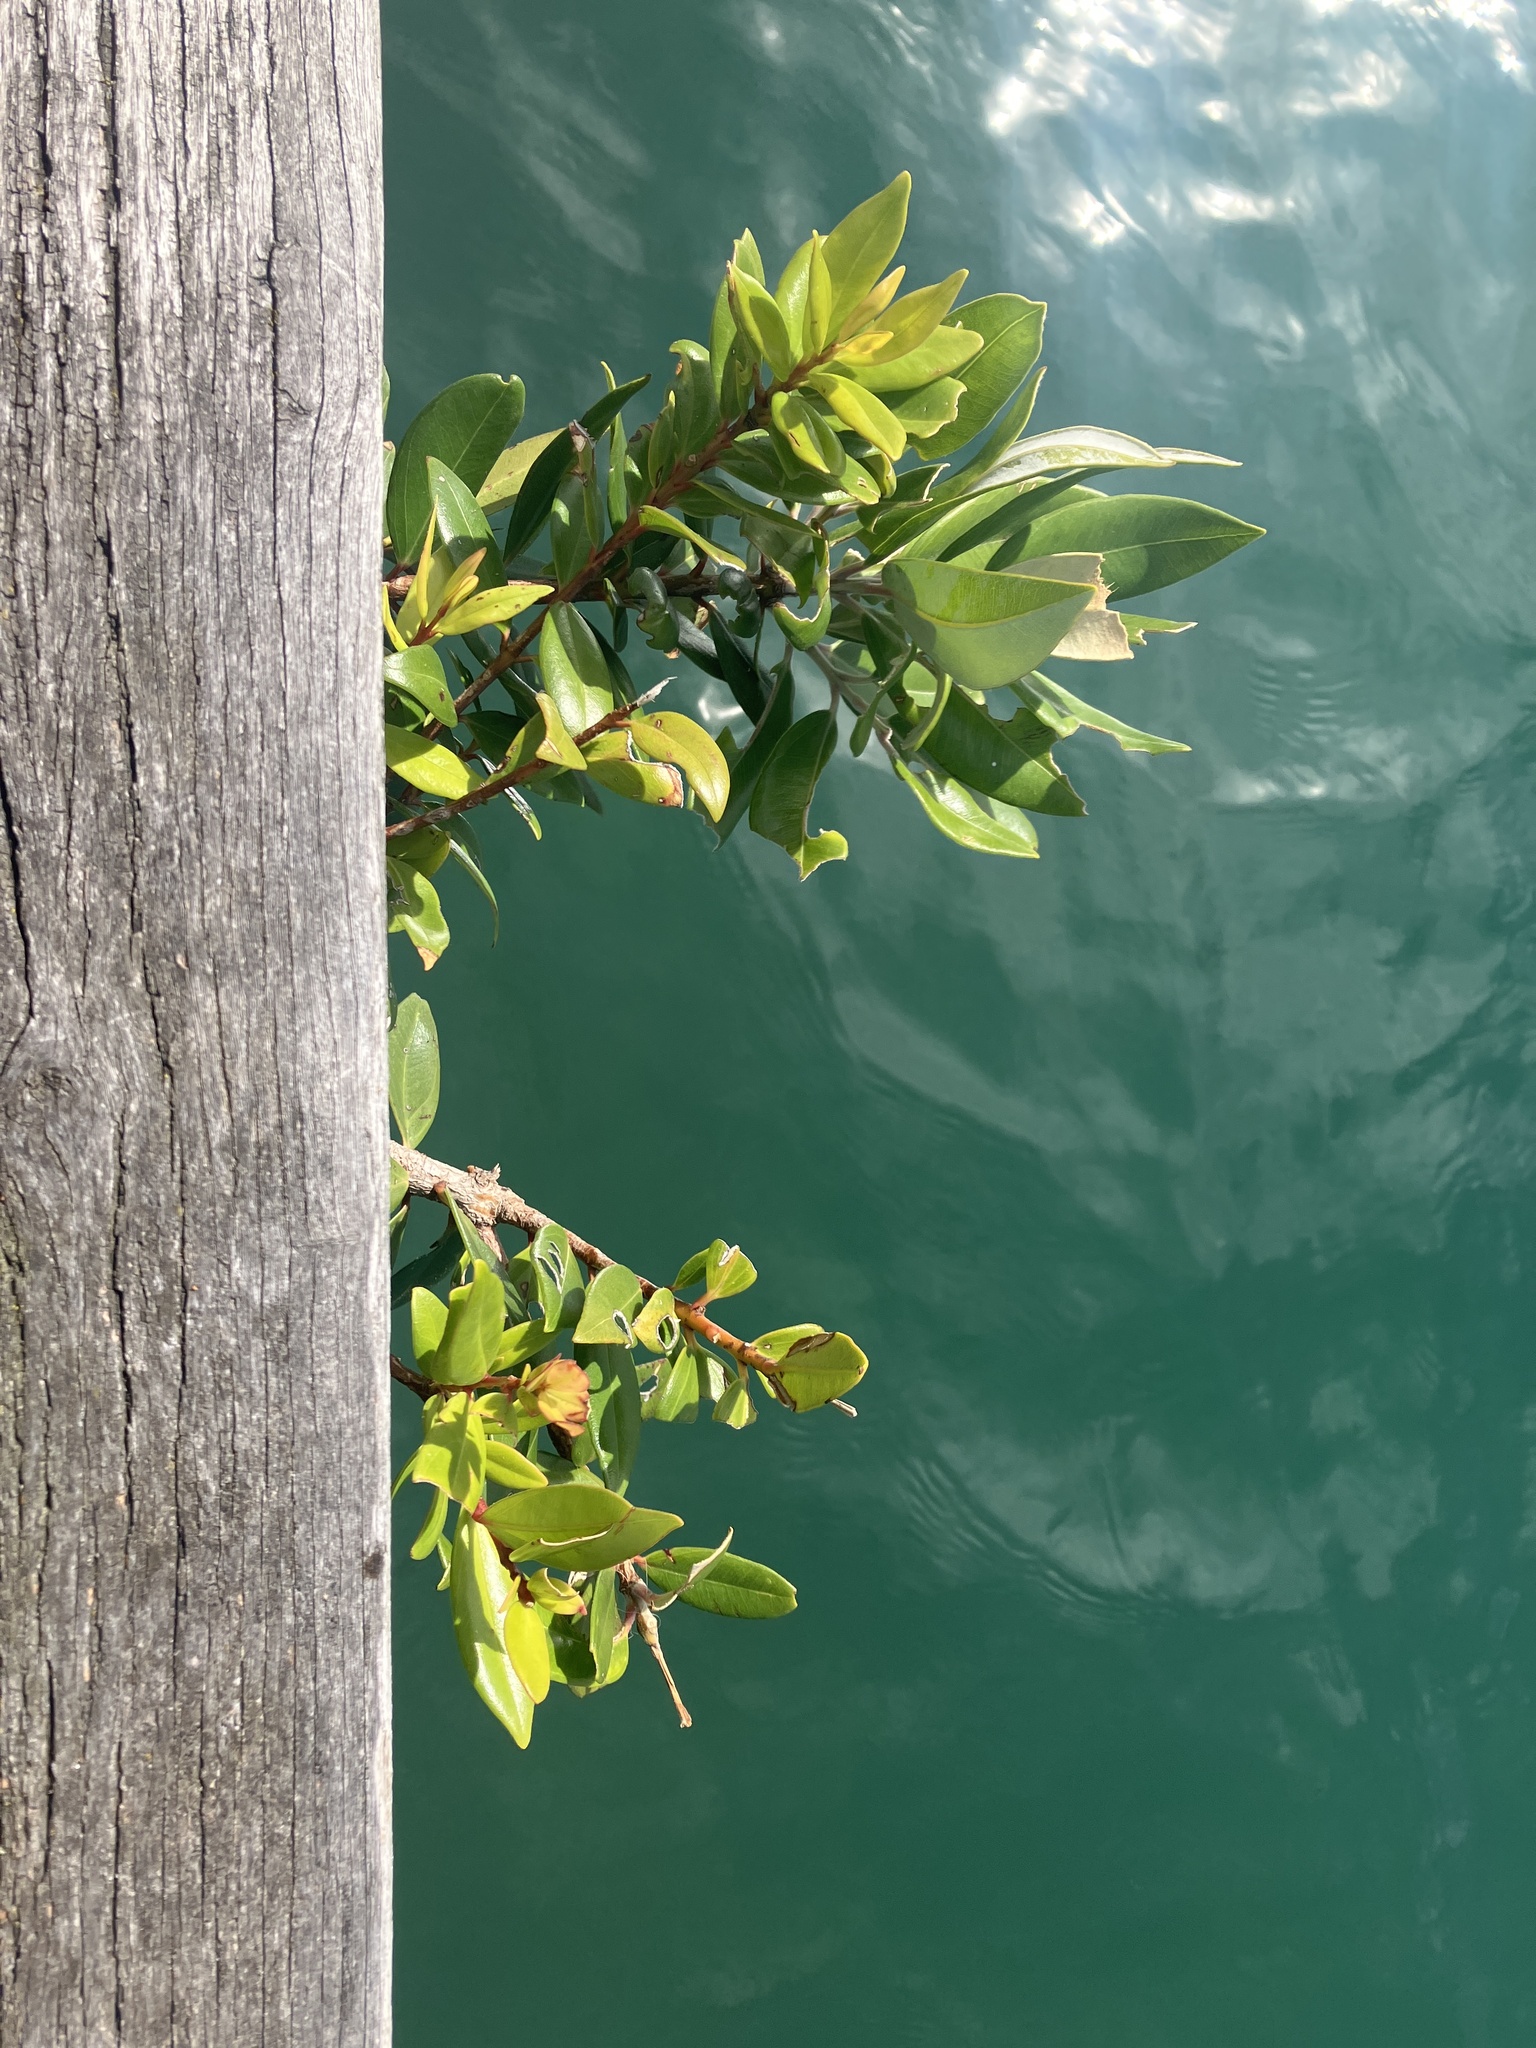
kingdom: Plantae
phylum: Tracheophyta
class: Magnoliopsida
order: Myrtales
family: Myrtaceae
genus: Metrosideros
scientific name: Metrosideros excelsa
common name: New zealand christmastree
